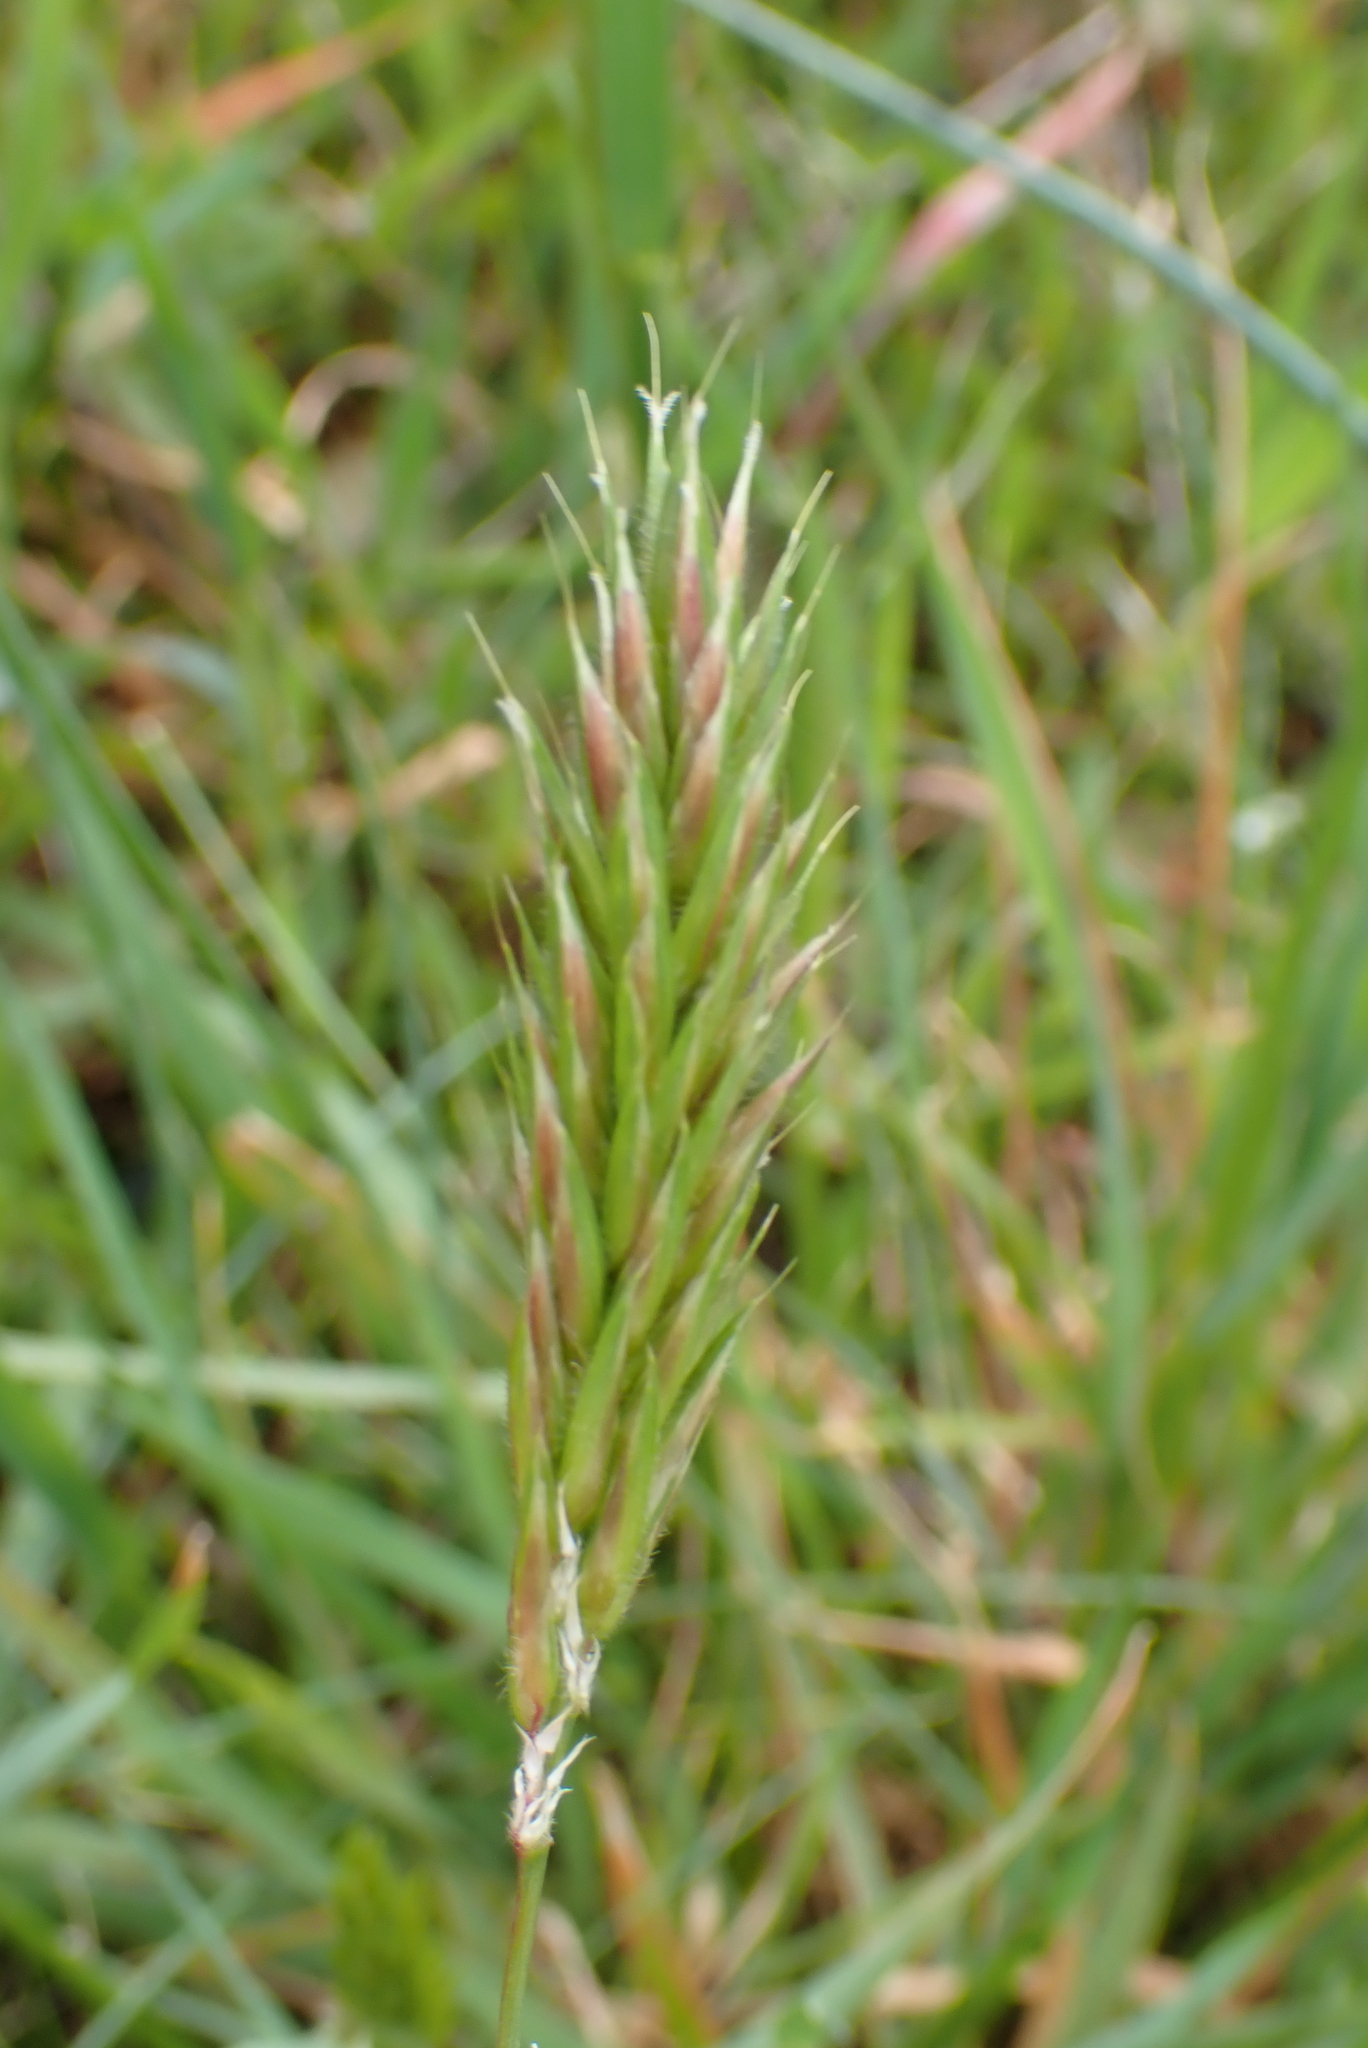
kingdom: Plantae
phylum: Tracheophyta
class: Liliopsida
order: Poales
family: Poaceae
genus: Anthoxanthum
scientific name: Anthoxanthum odoratum
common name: Sweet vernalgrass
